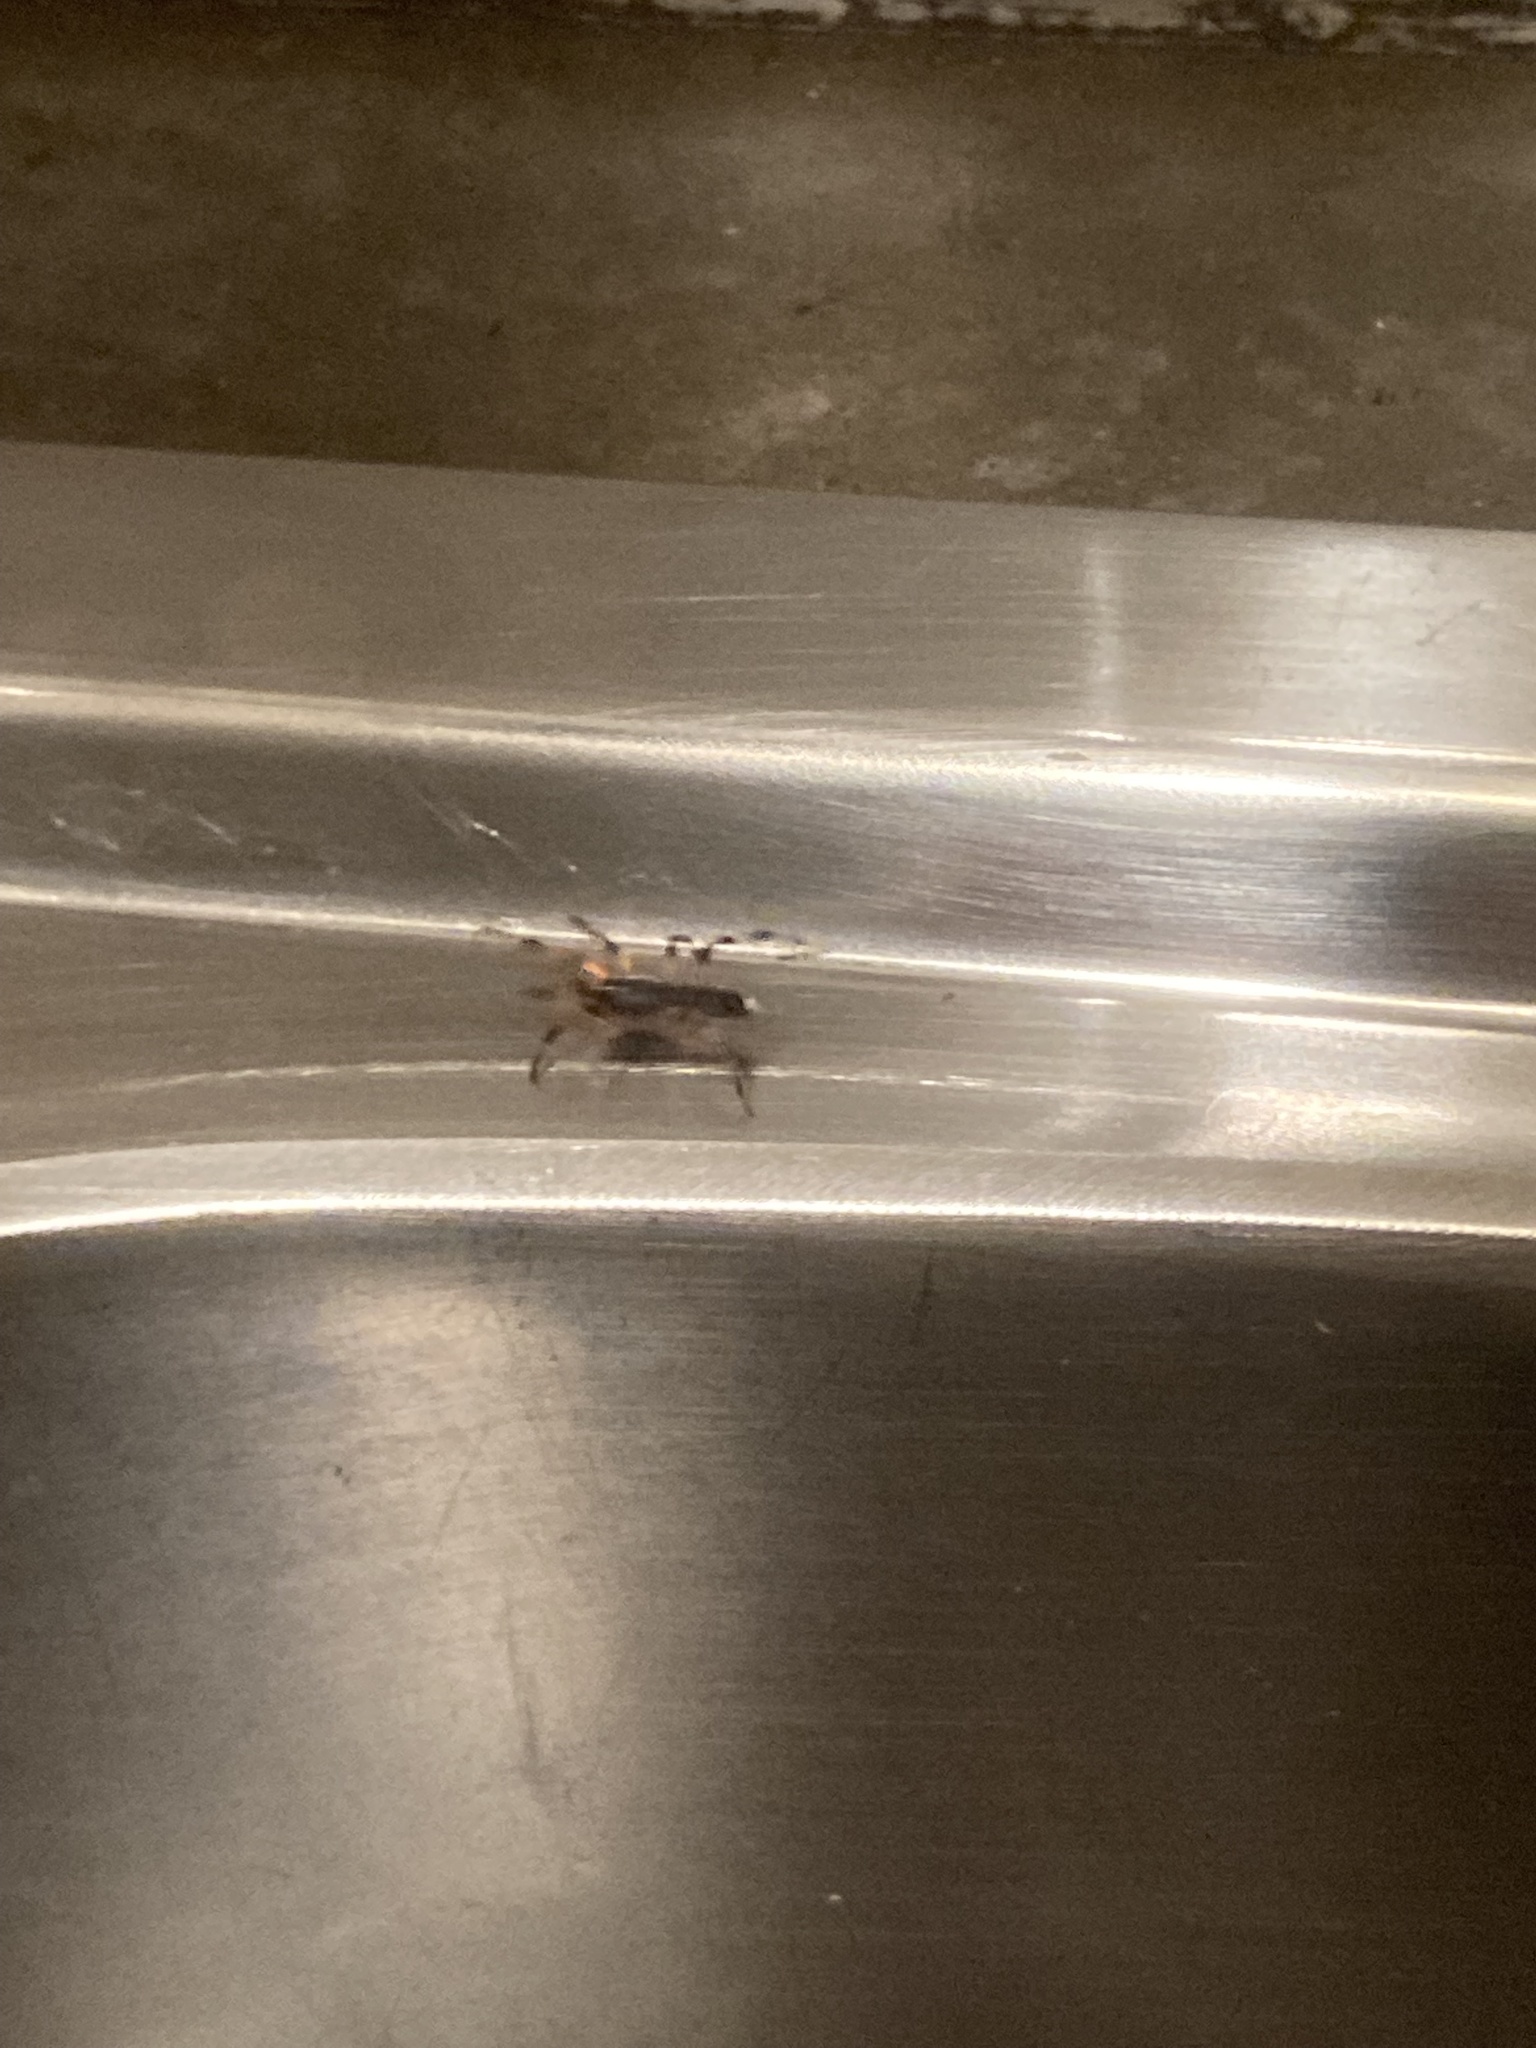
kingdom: Animalia
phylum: Arthropoda
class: Arachnida
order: Araneae
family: Lamponidae
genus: Lampona
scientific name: Lampona murina
